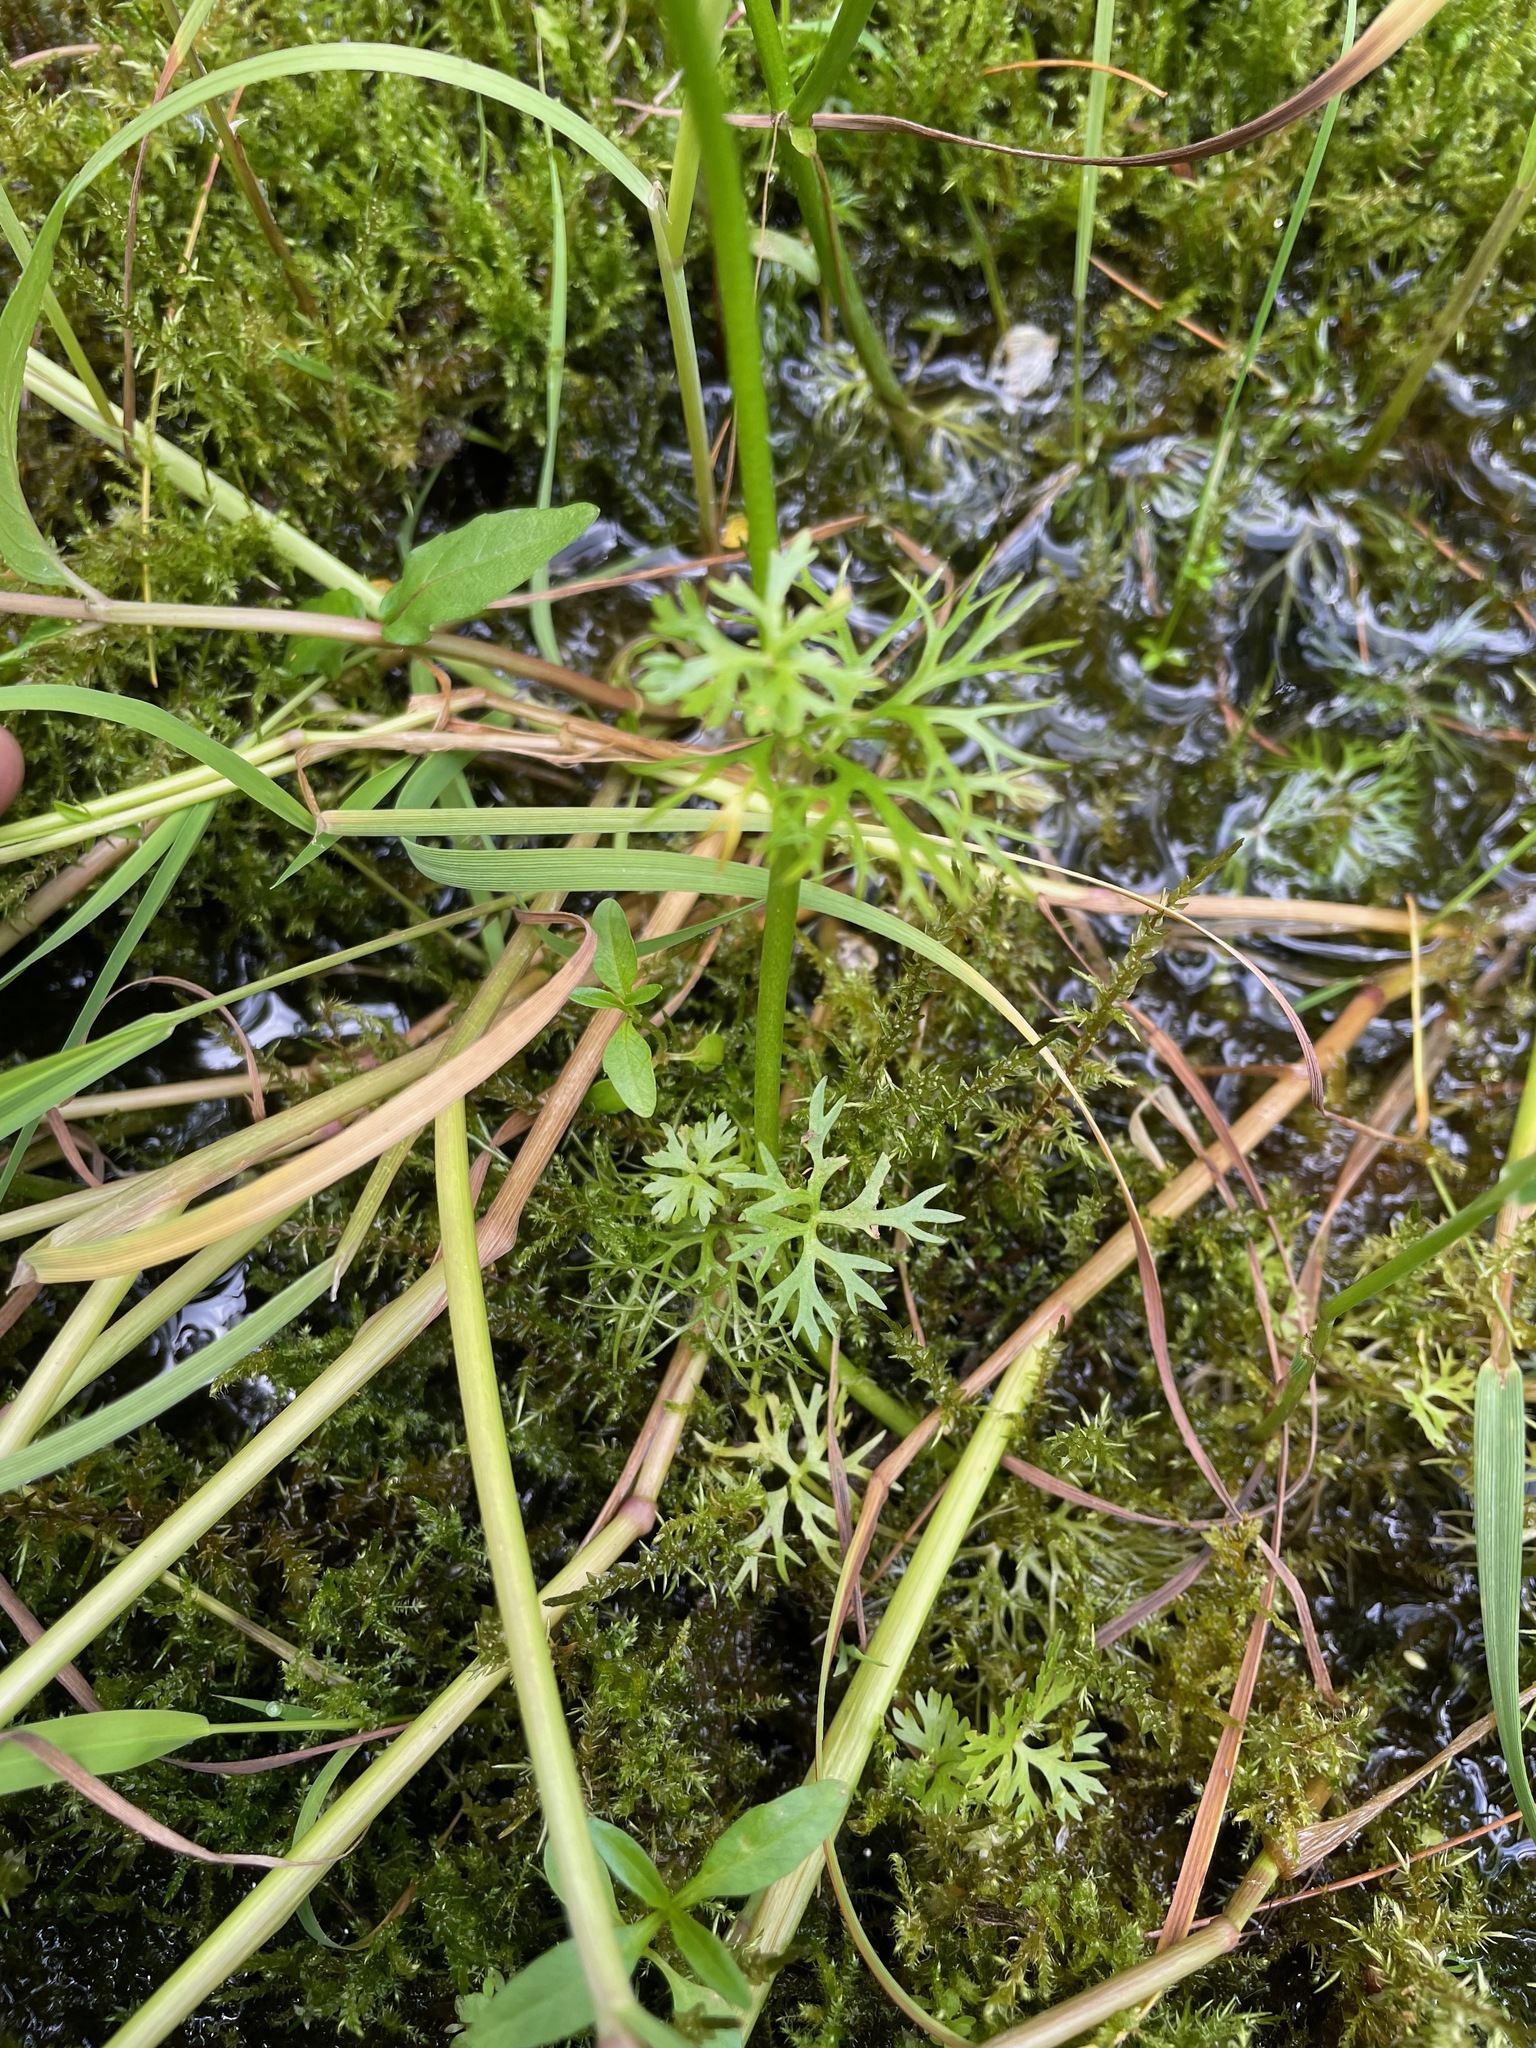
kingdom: Plantae
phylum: Tracheophyta
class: Magnoliopsida
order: Ranunculales
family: Ranunculaceae
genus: Ranunculus
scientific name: Ranunculus flabellaris
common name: Yellow water-crowfoot
